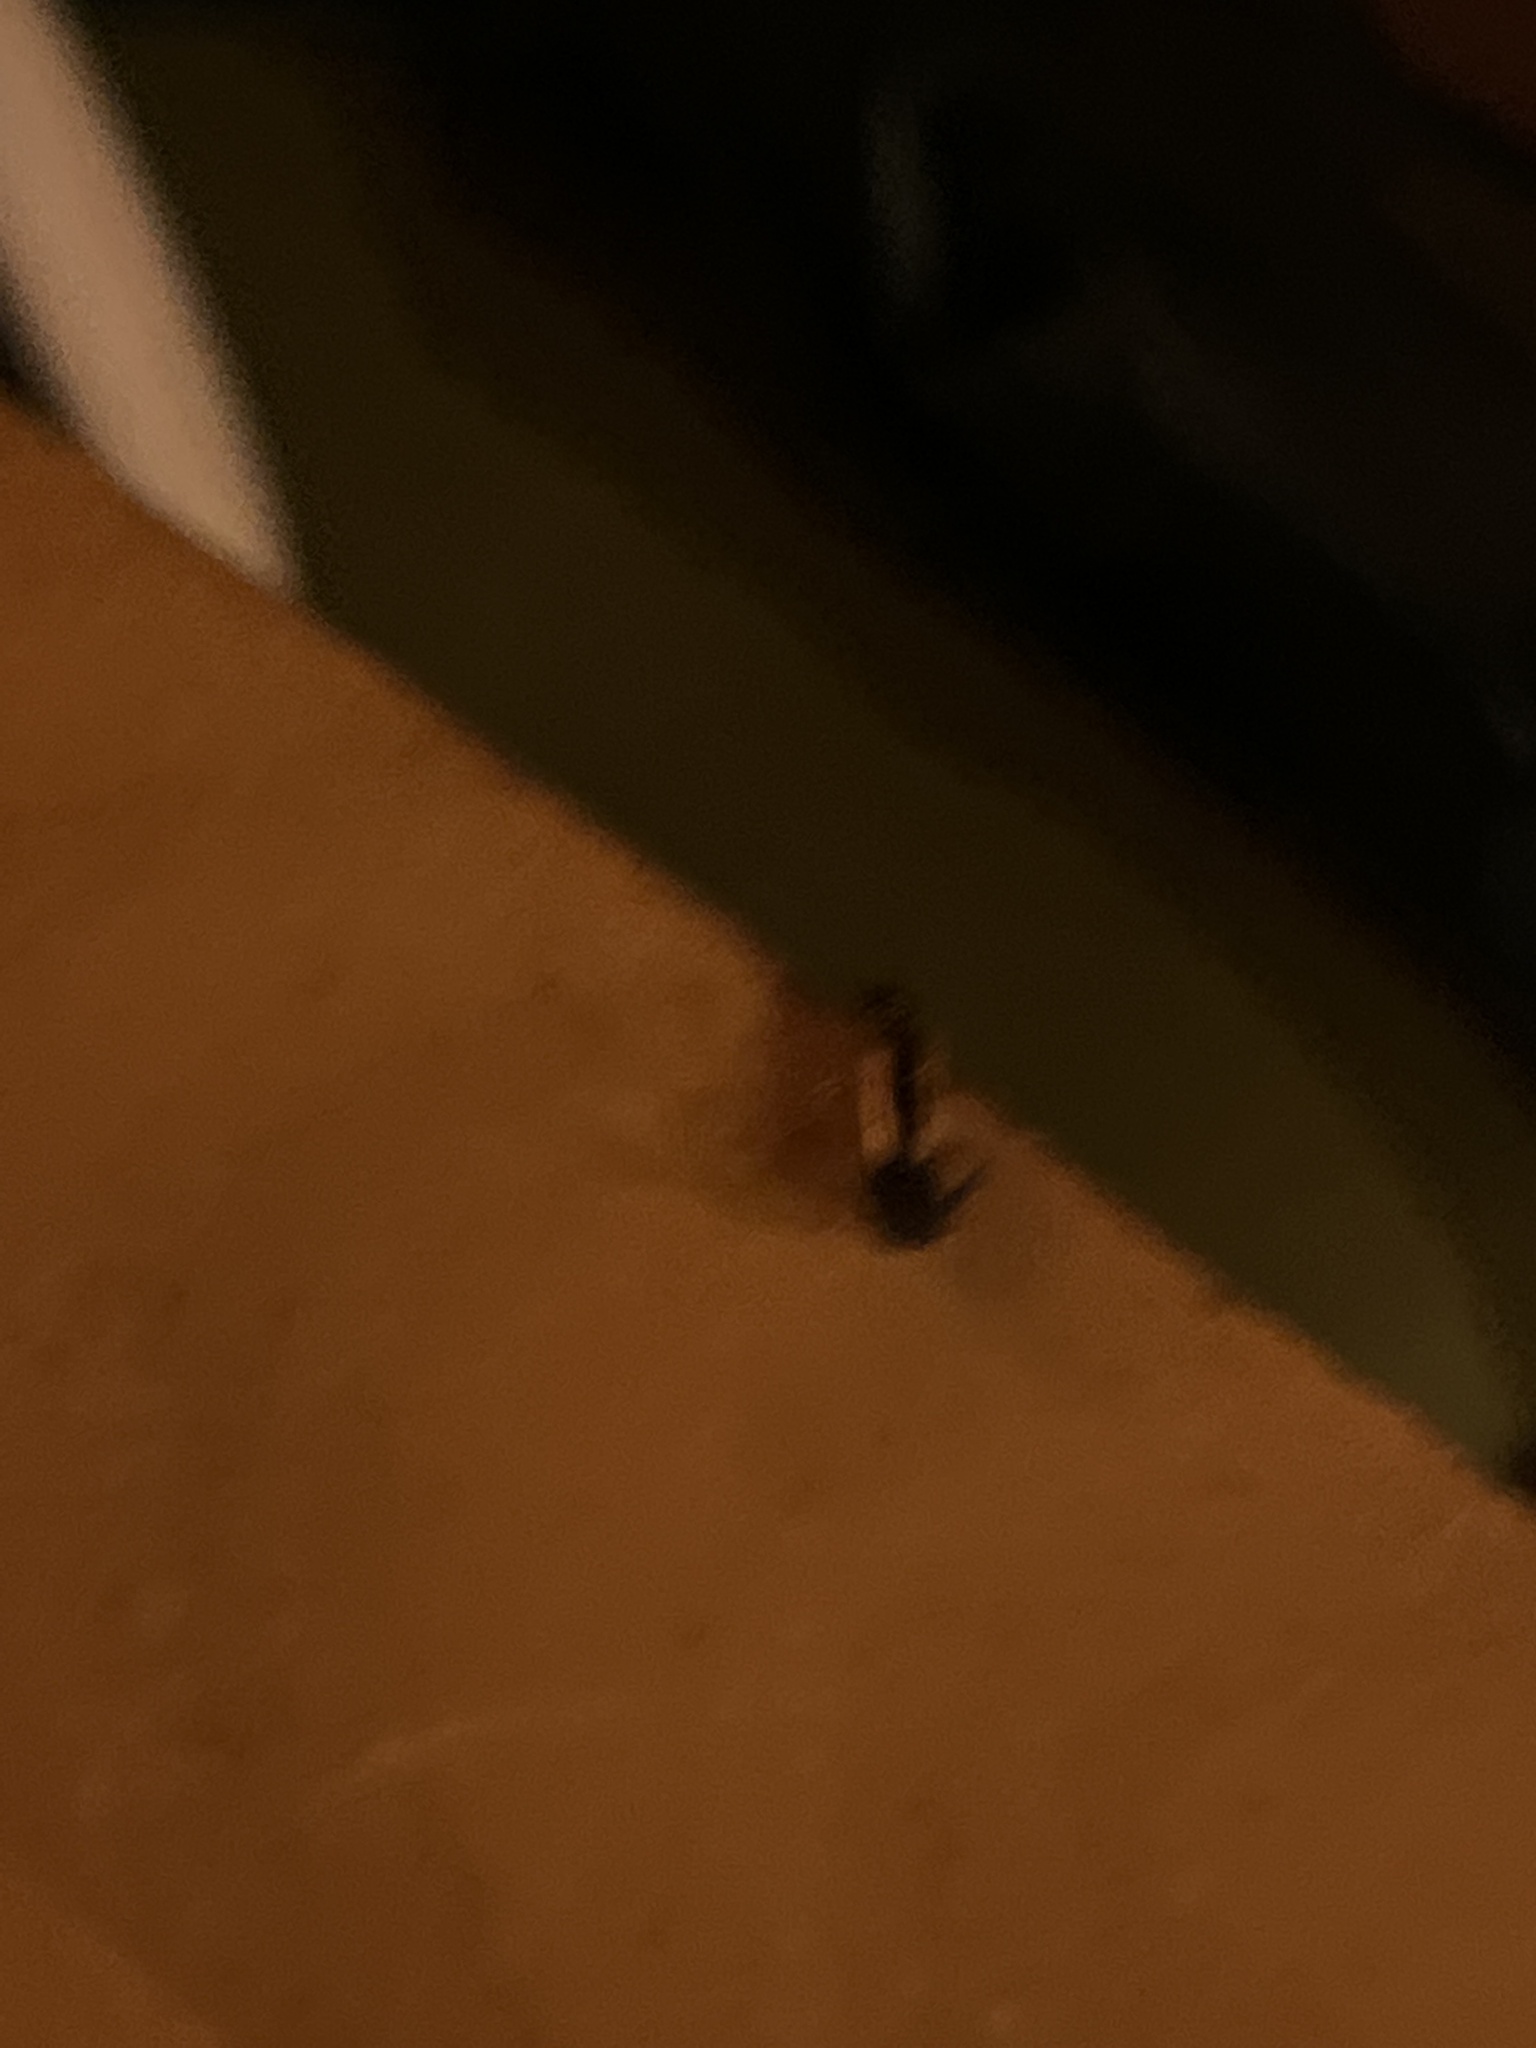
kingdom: Animalia
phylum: Arthropoda
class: Insecta
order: Dermaptera
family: Forficulidae
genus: Doru
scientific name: Doru taeniatum
